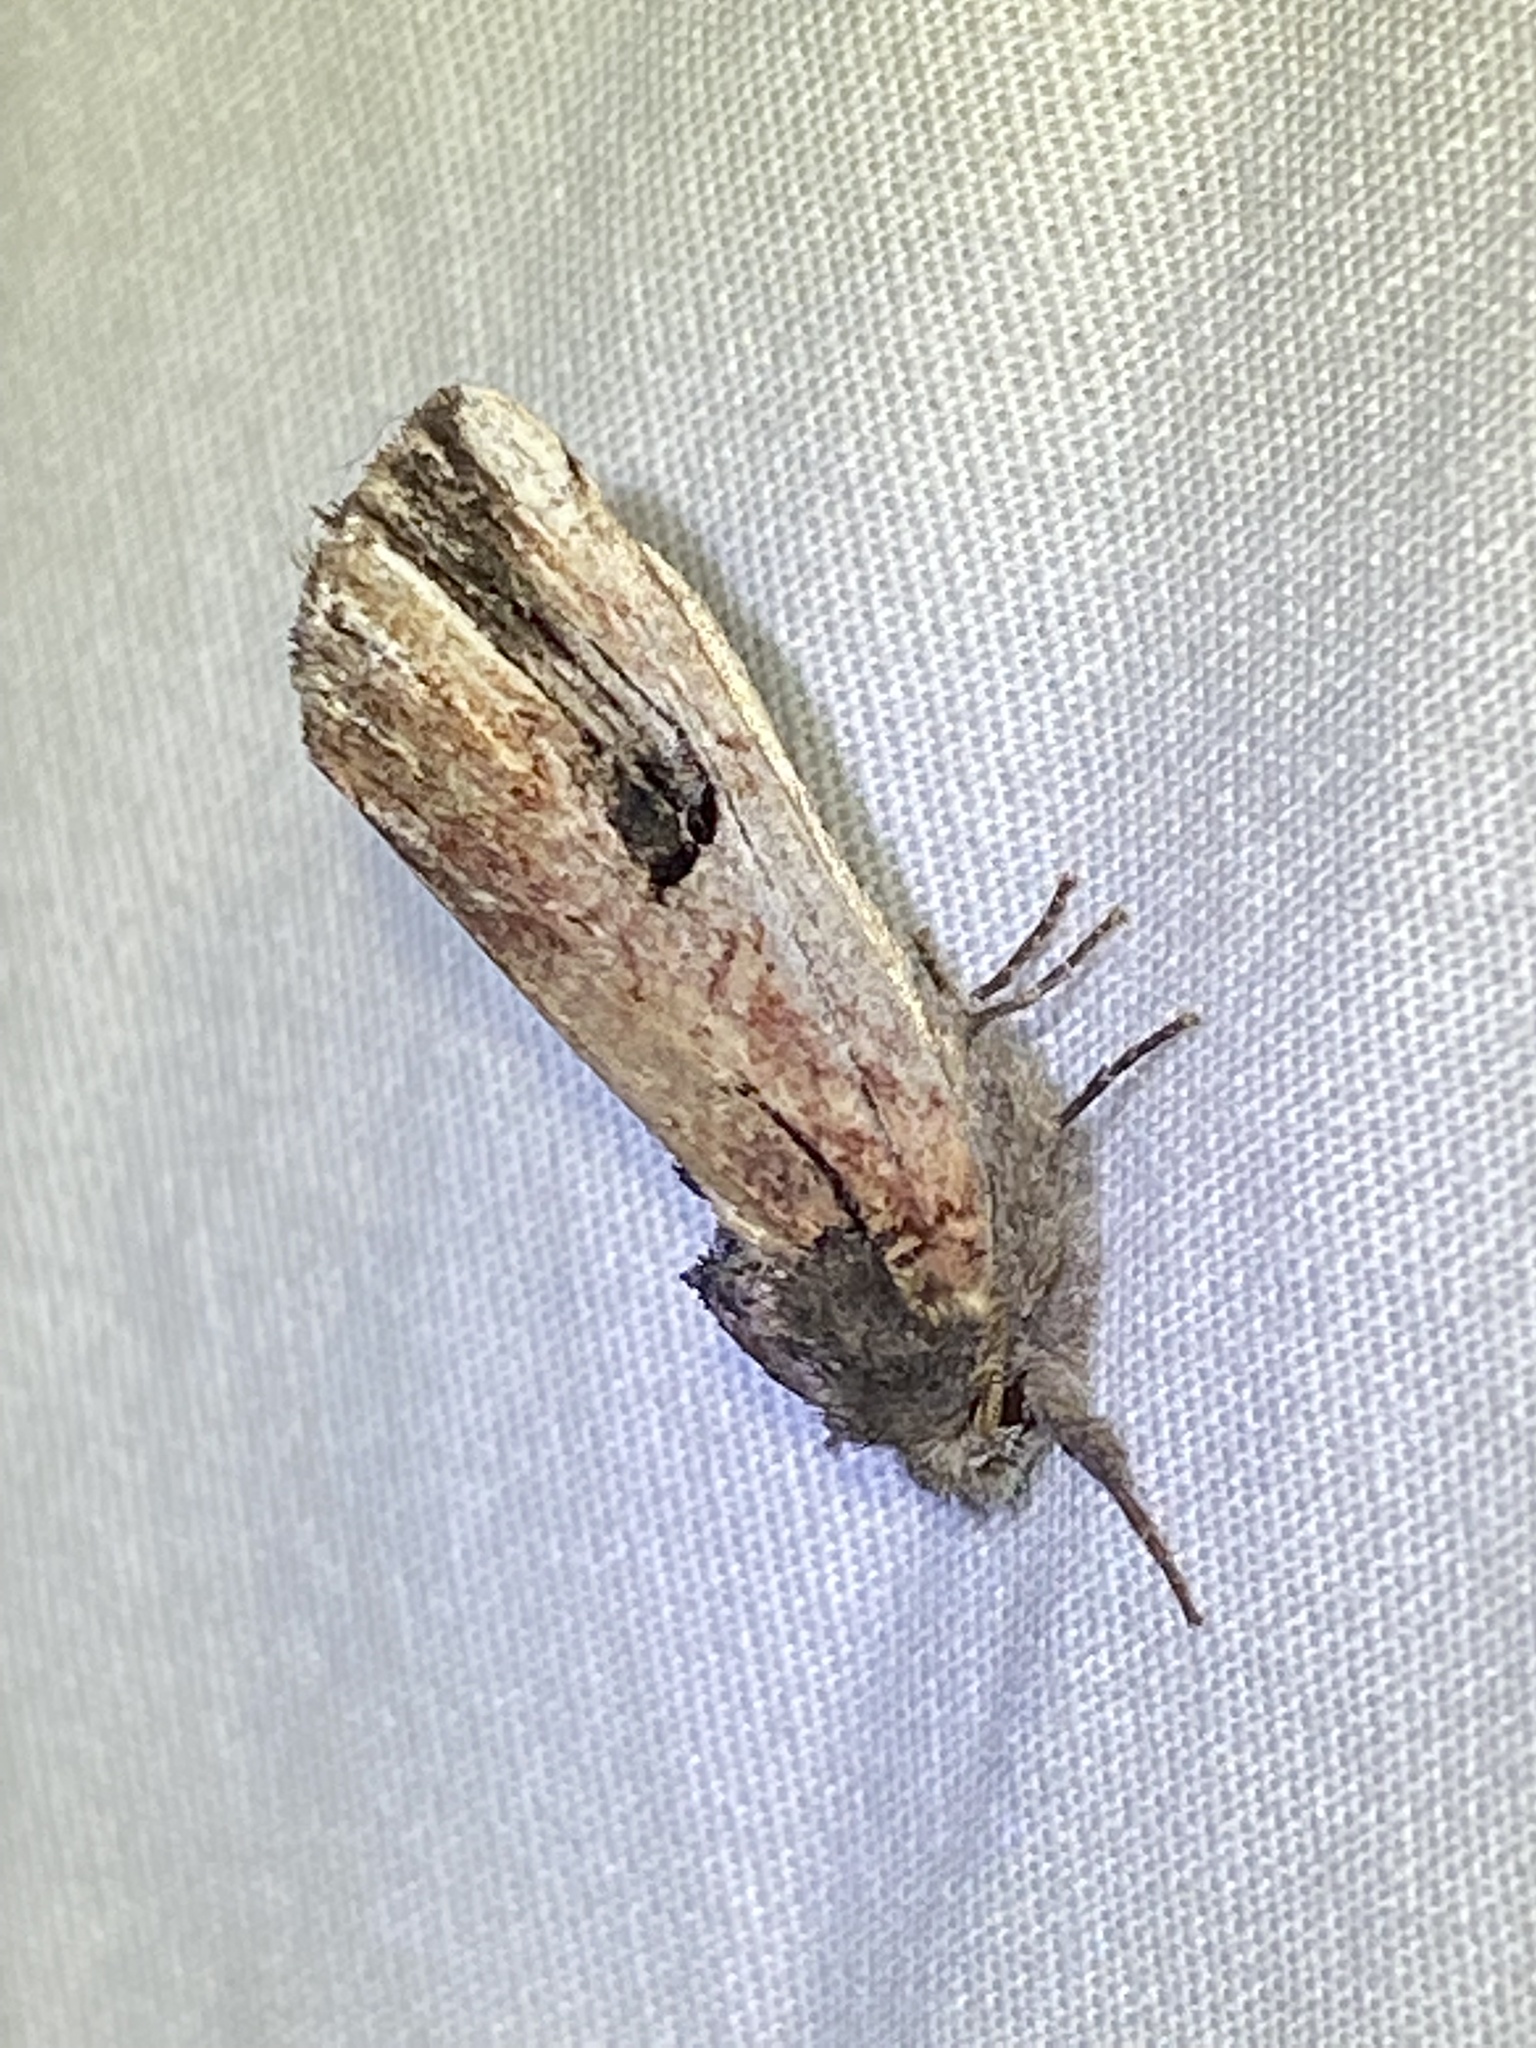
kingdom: Animalia
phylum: Arthropoda
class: Insecta
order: Lepidoptera
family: Notodontidae
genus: Schizura
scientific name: Schizura badia
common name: Chestnut schizura
